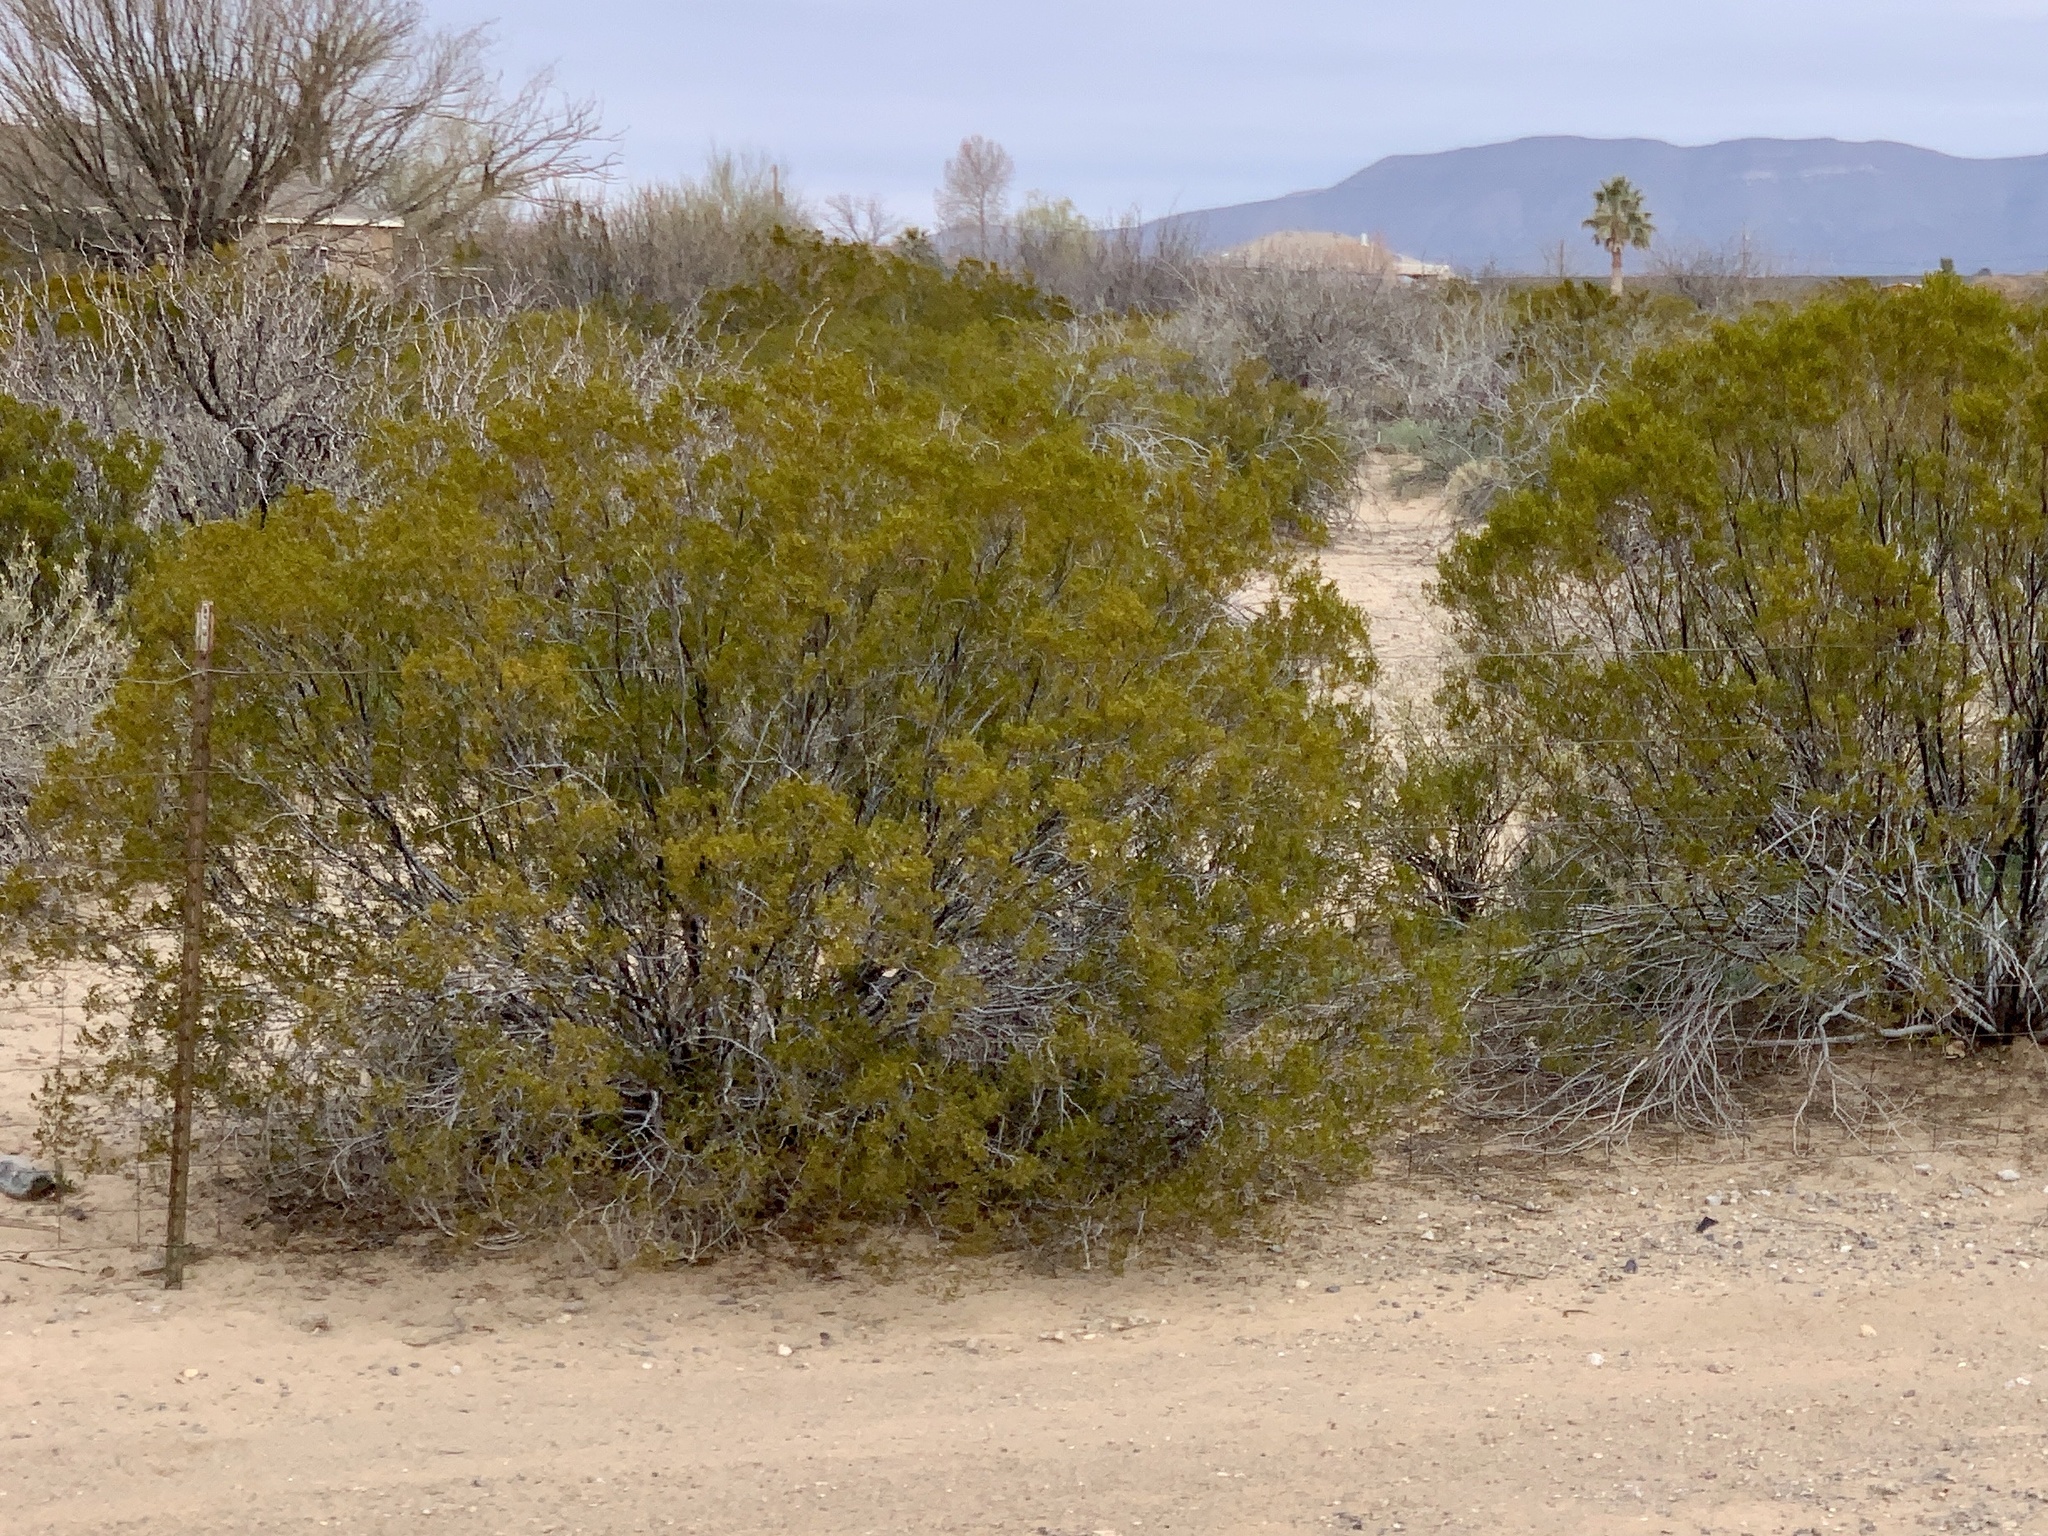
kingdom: Plantae
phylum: Tracheophyta
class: Magnoliopsida
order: Zygophyllales
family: Zygophyllaceae
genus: Larrea
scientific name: Larrea tridentata
